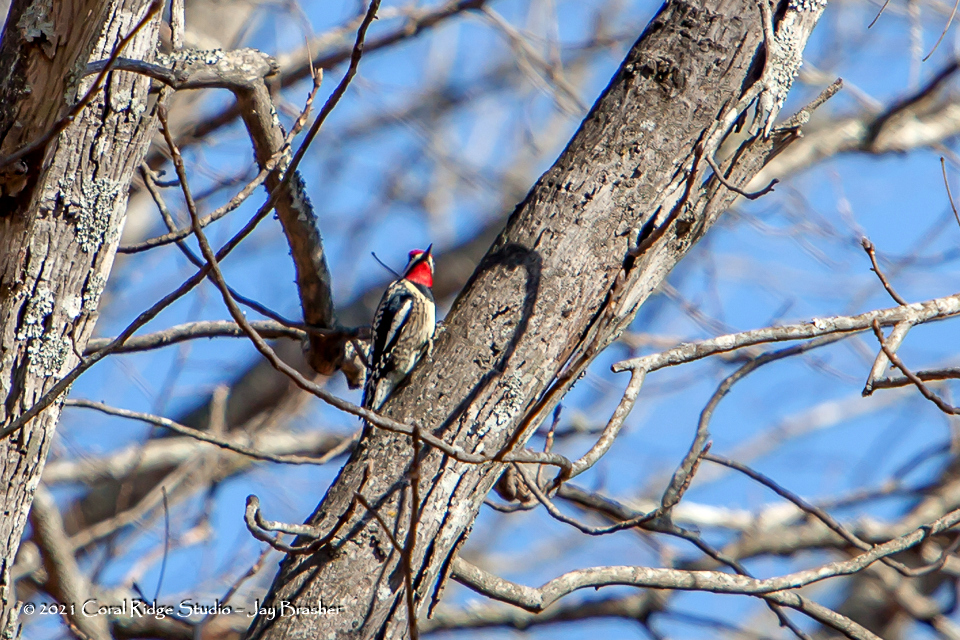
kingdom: Animalia
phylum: Chordata
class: Aves
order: Piciformes
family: Picidae
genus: Sphyrapicus
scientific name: Sphyrapicus varius
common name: Yellow-bellied sapsucker
